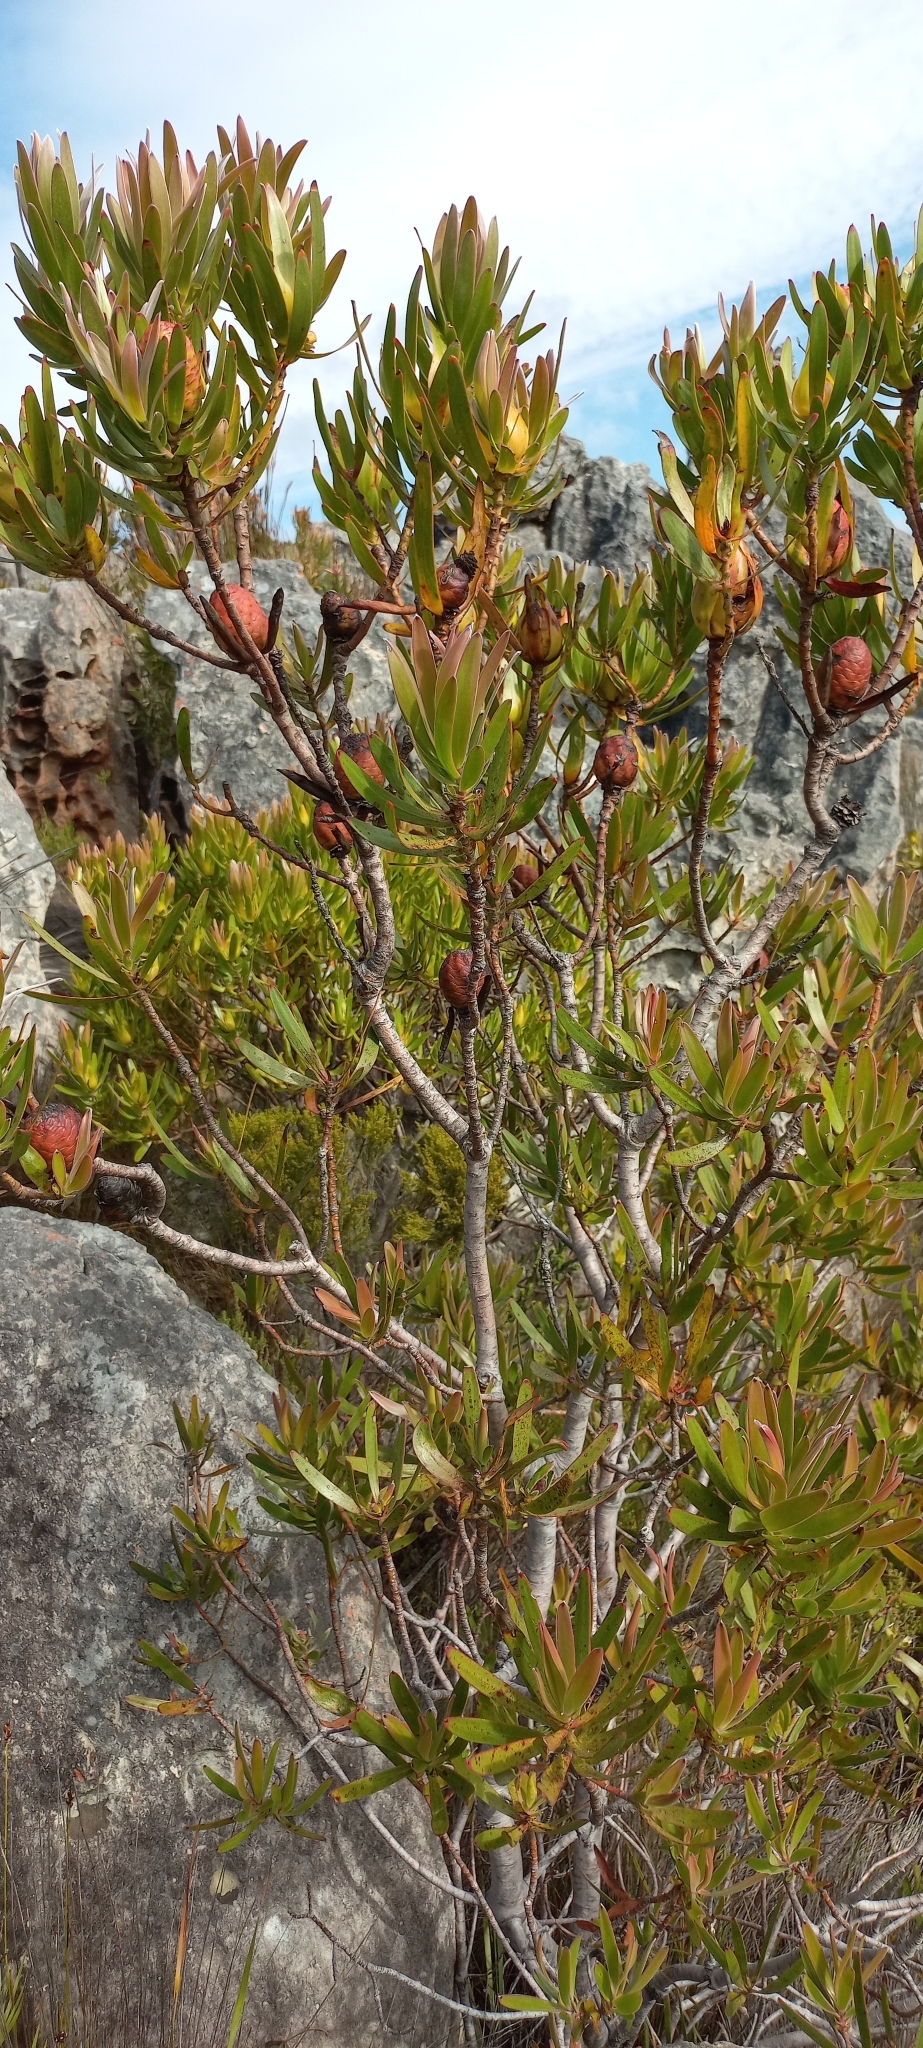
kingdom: Plantae
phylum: Tracheophyta
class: Magnoliopsida
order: Proteales
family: Proteaceae
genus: Leucadendron
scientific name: Leucadendron laureolum
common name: Golden sunshinebush
